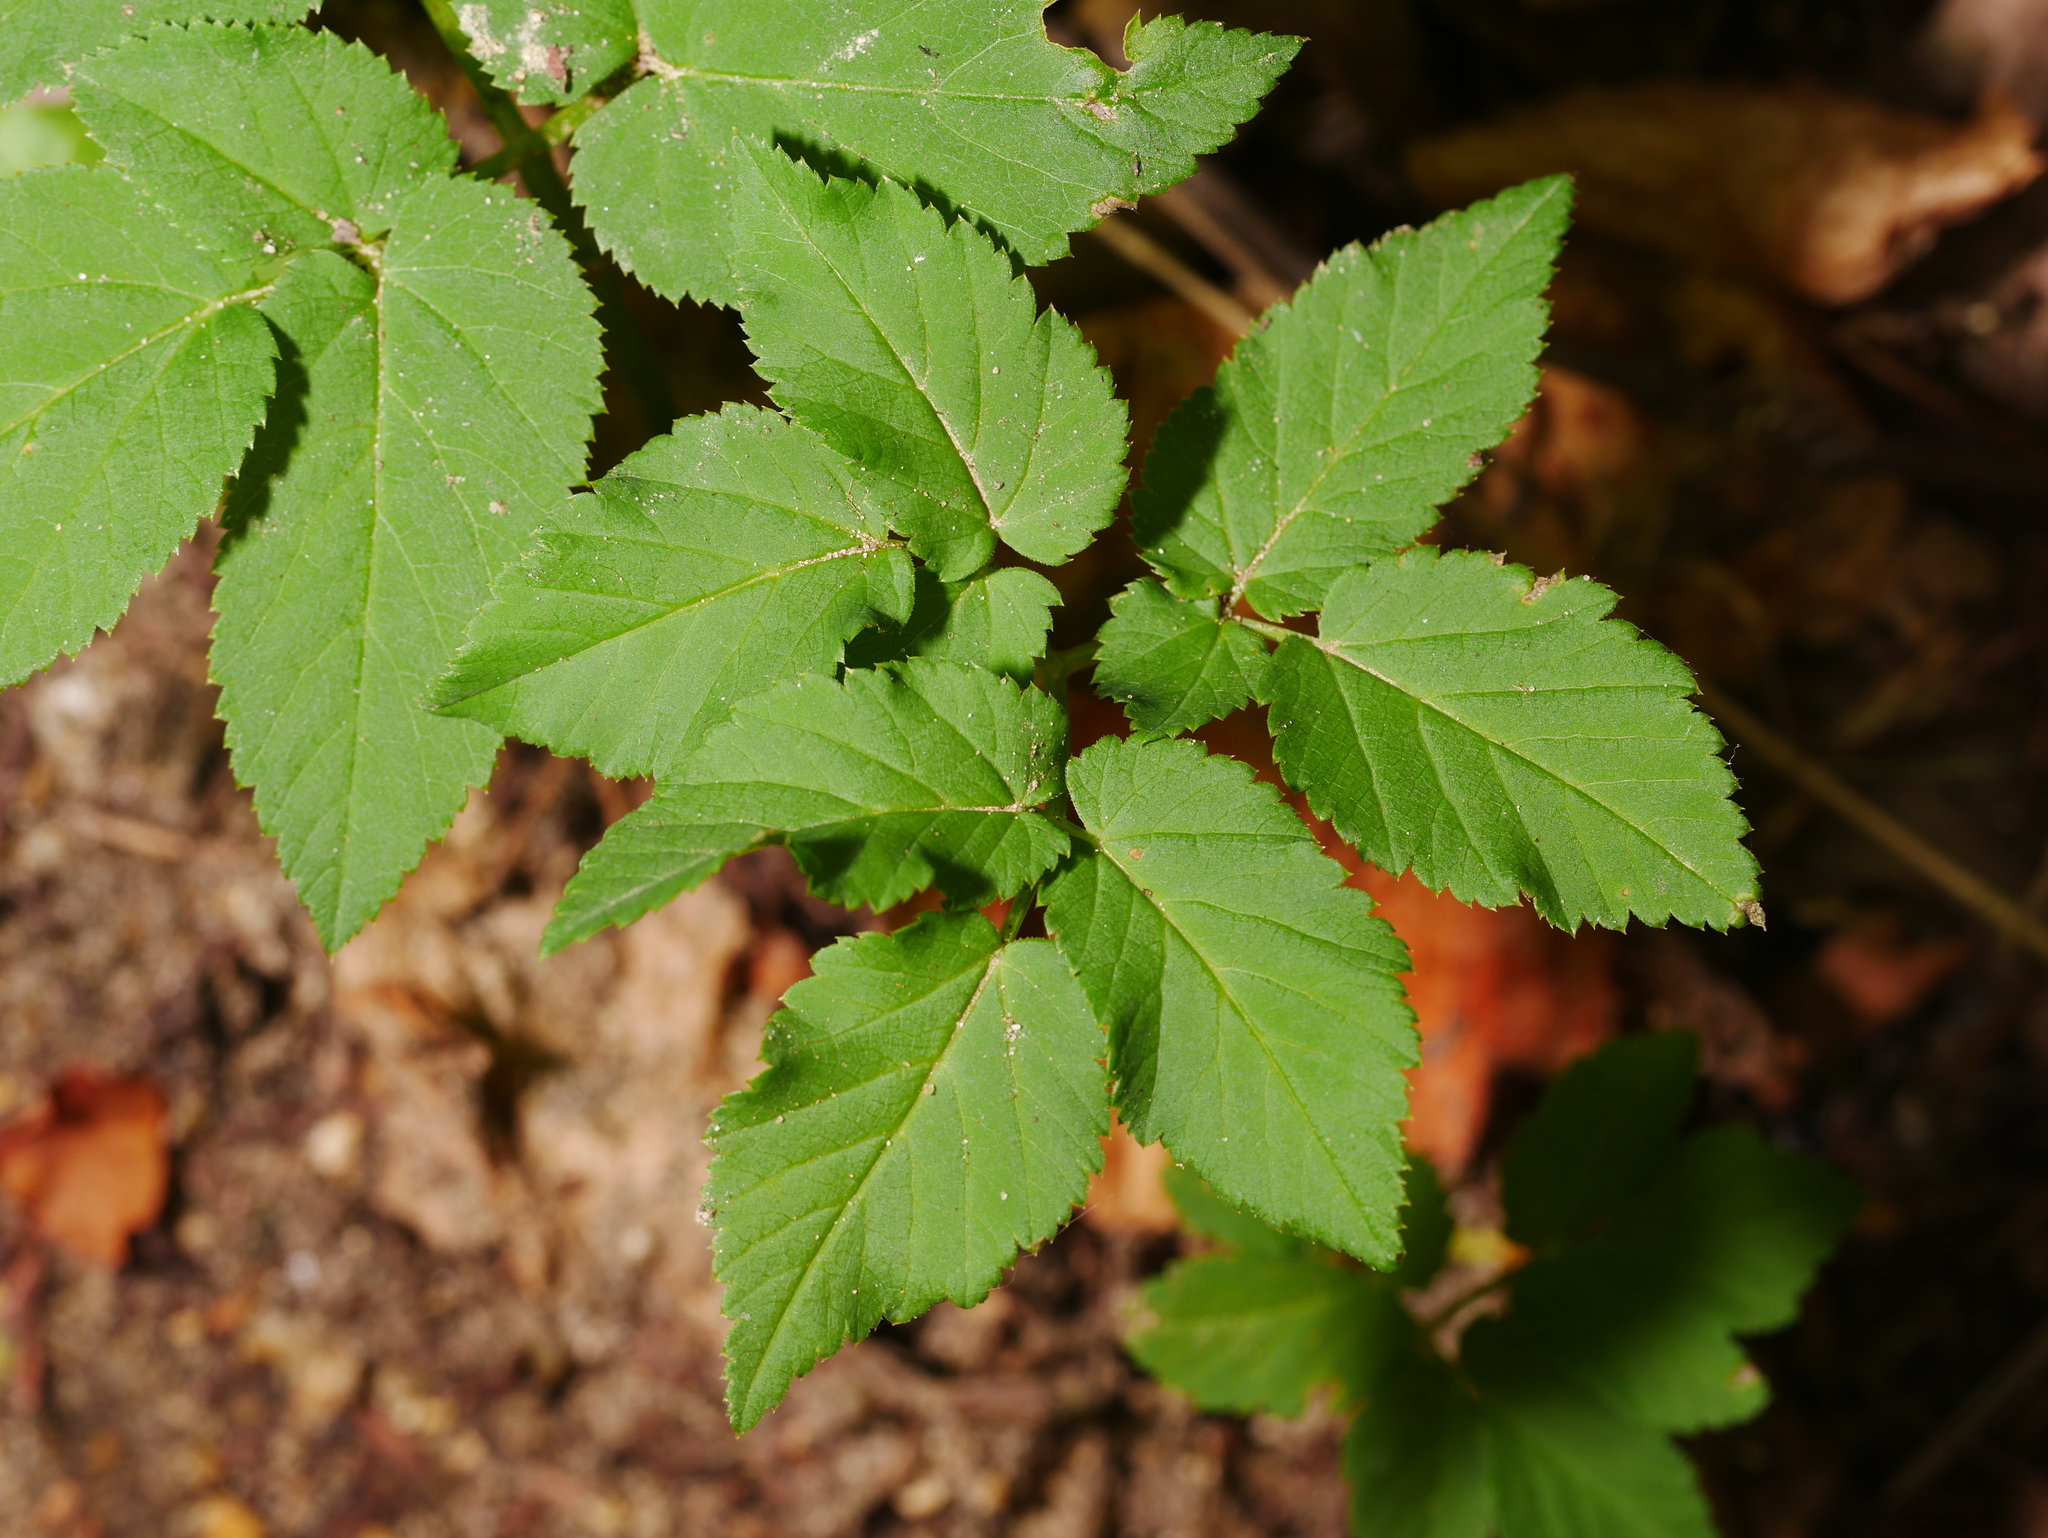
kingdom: Plantae
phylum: Tracheophyta
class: Magnoliopsida
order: Apiales
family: Apiaceae
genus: Aegopodium
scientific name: Aegopodium podagraria
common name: Ground-elder
